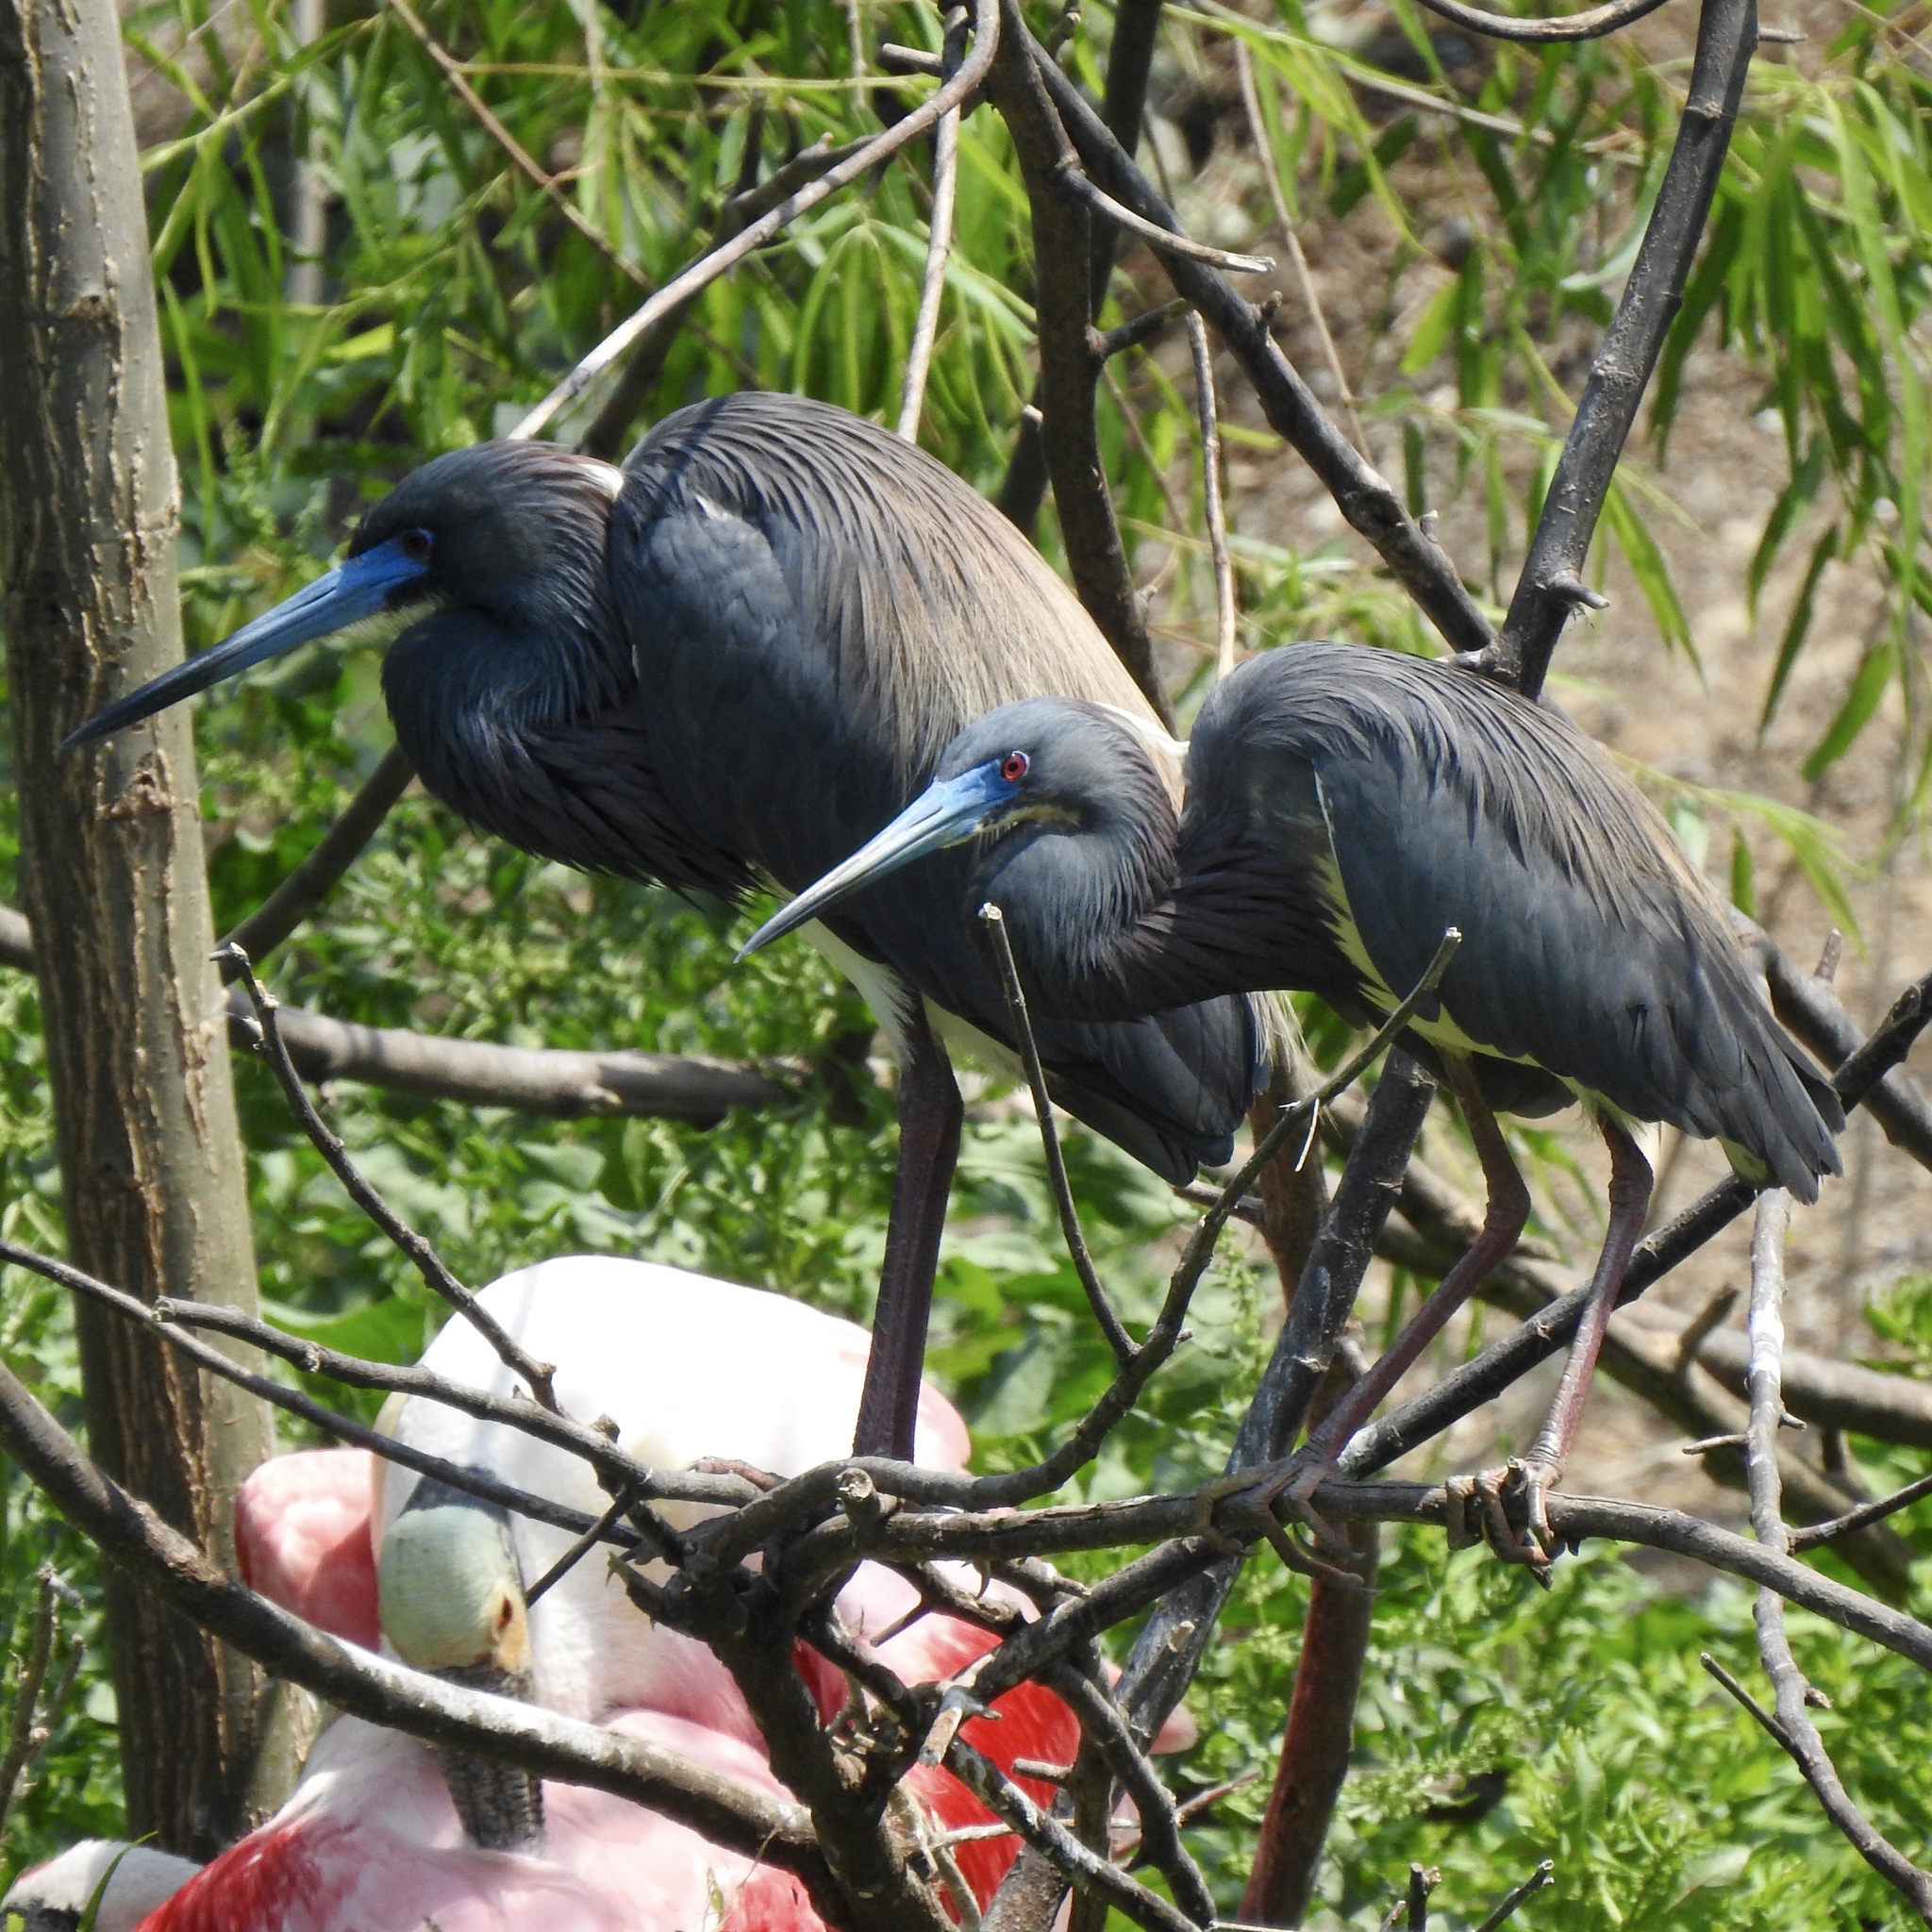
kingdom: Animalia
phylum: Chordata
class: Aves
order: Pelecaniformes
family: Ardeidae
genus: Egretta
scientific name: Egretta tricolor
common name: Tricolored heron
